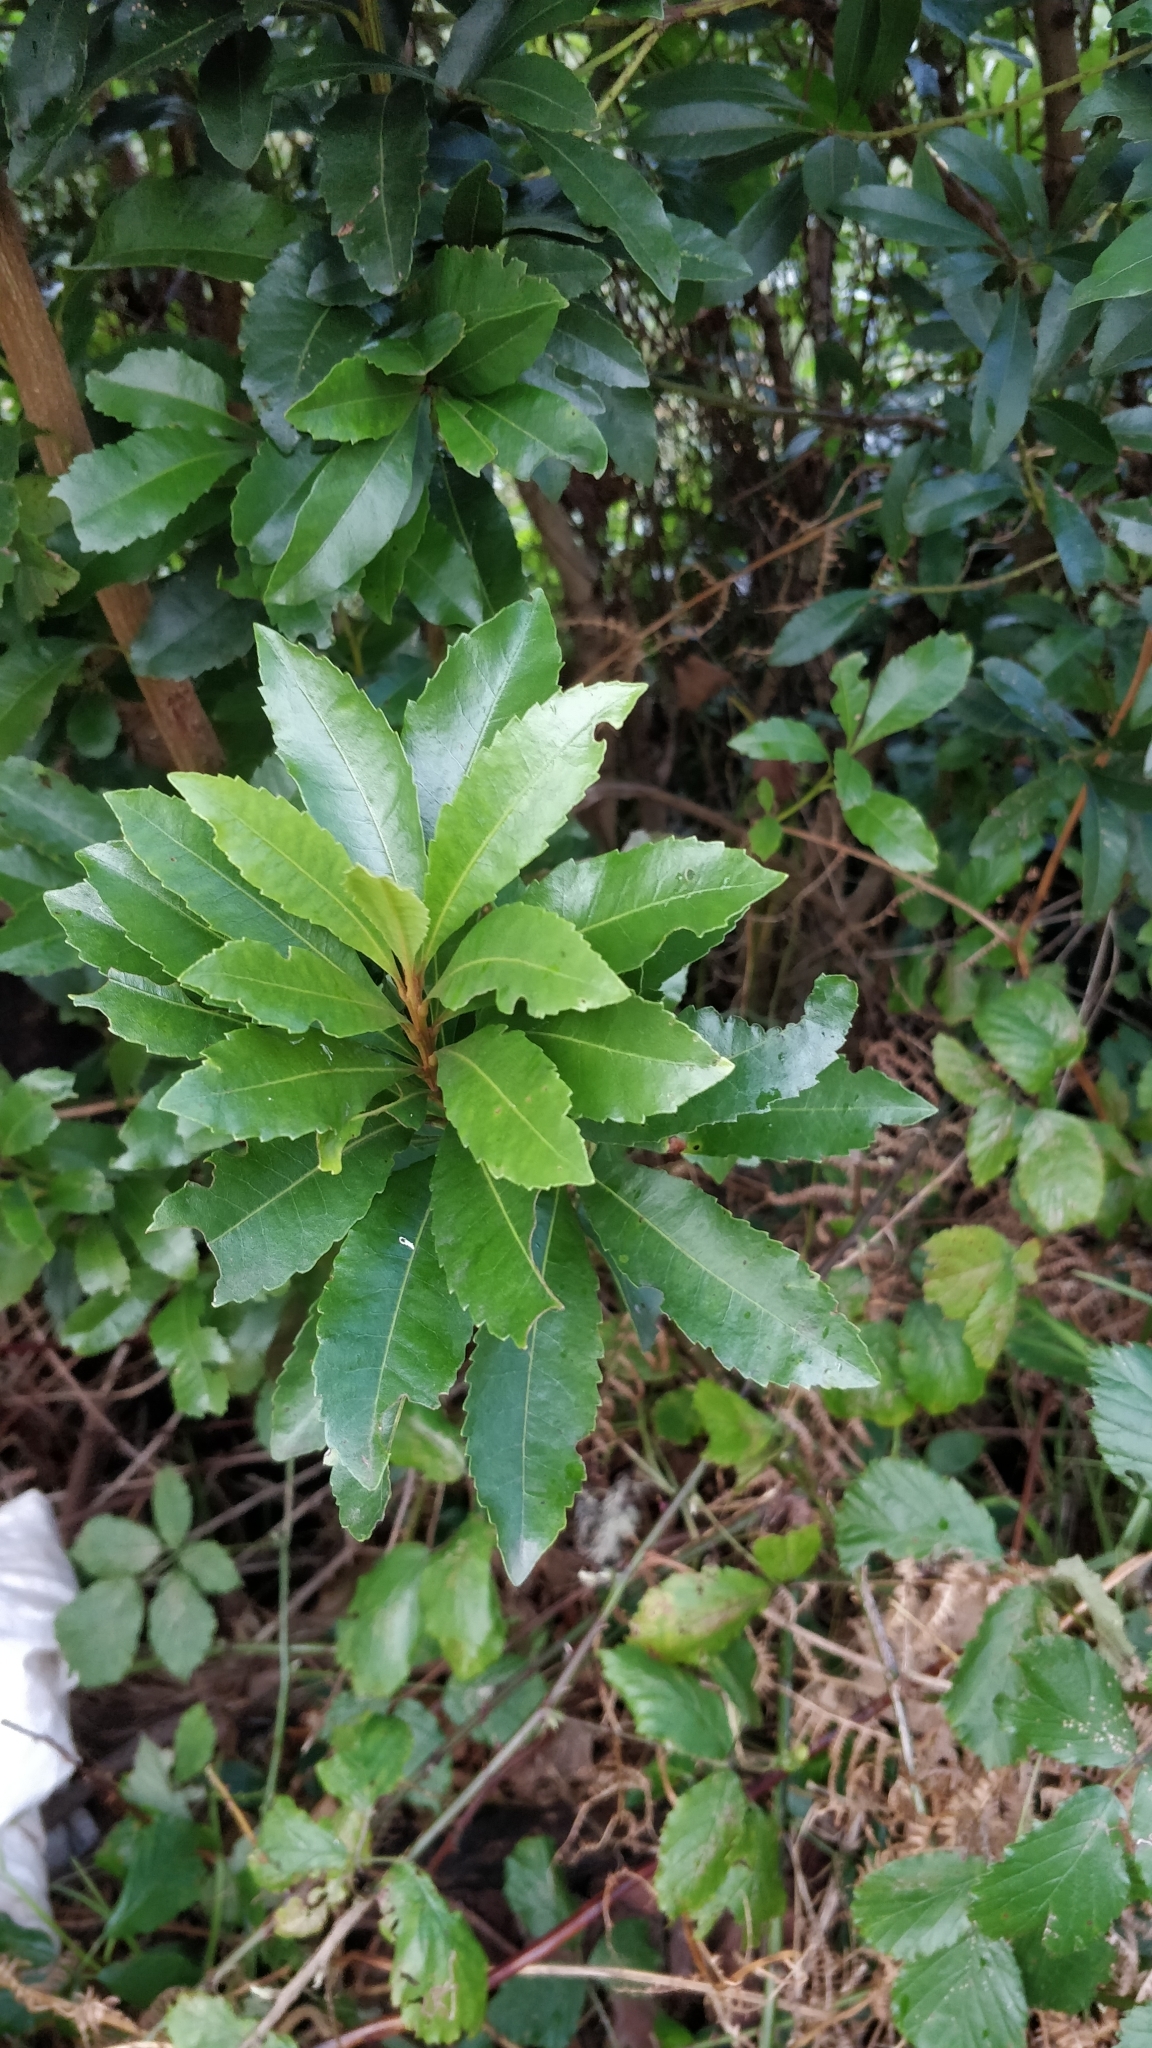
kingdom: Plantae
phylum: Tracheophyta
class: Magnoliopsida
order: Fagales
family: Myricaceae
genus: Morella
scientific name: Morella faya
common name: Firetree
